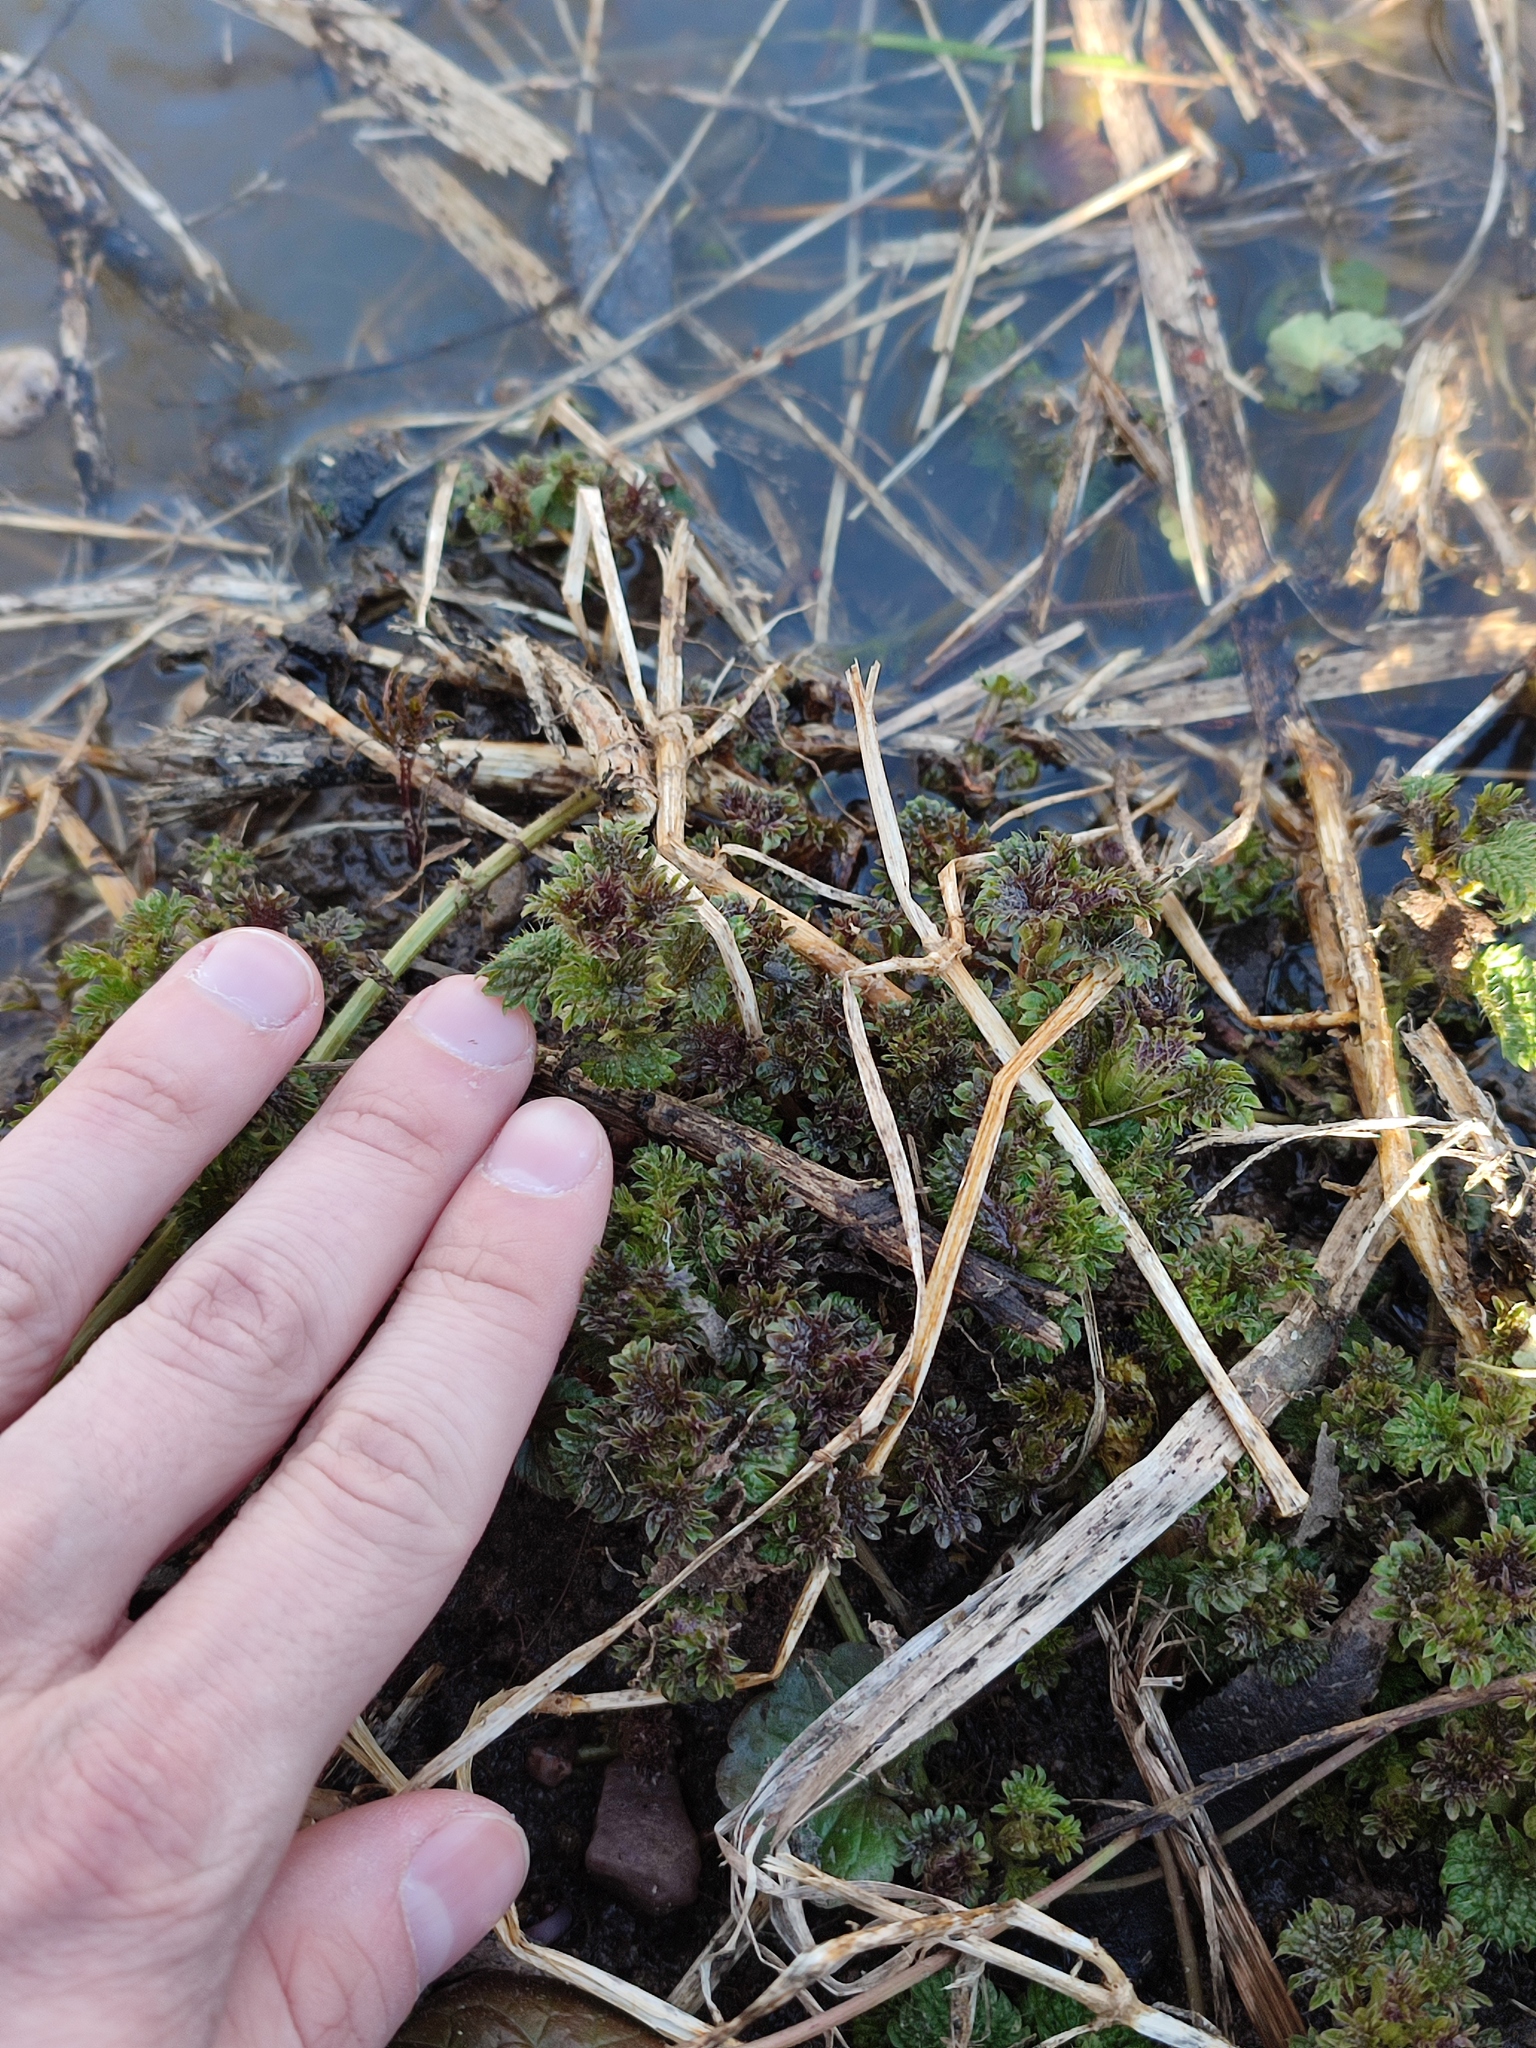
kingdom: Plantae
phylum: Tracheophyta
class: Magnoliopsida
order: Rosales
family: Urticaceae
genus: Urtica
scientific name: Urtica dioica
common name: Common nettle
